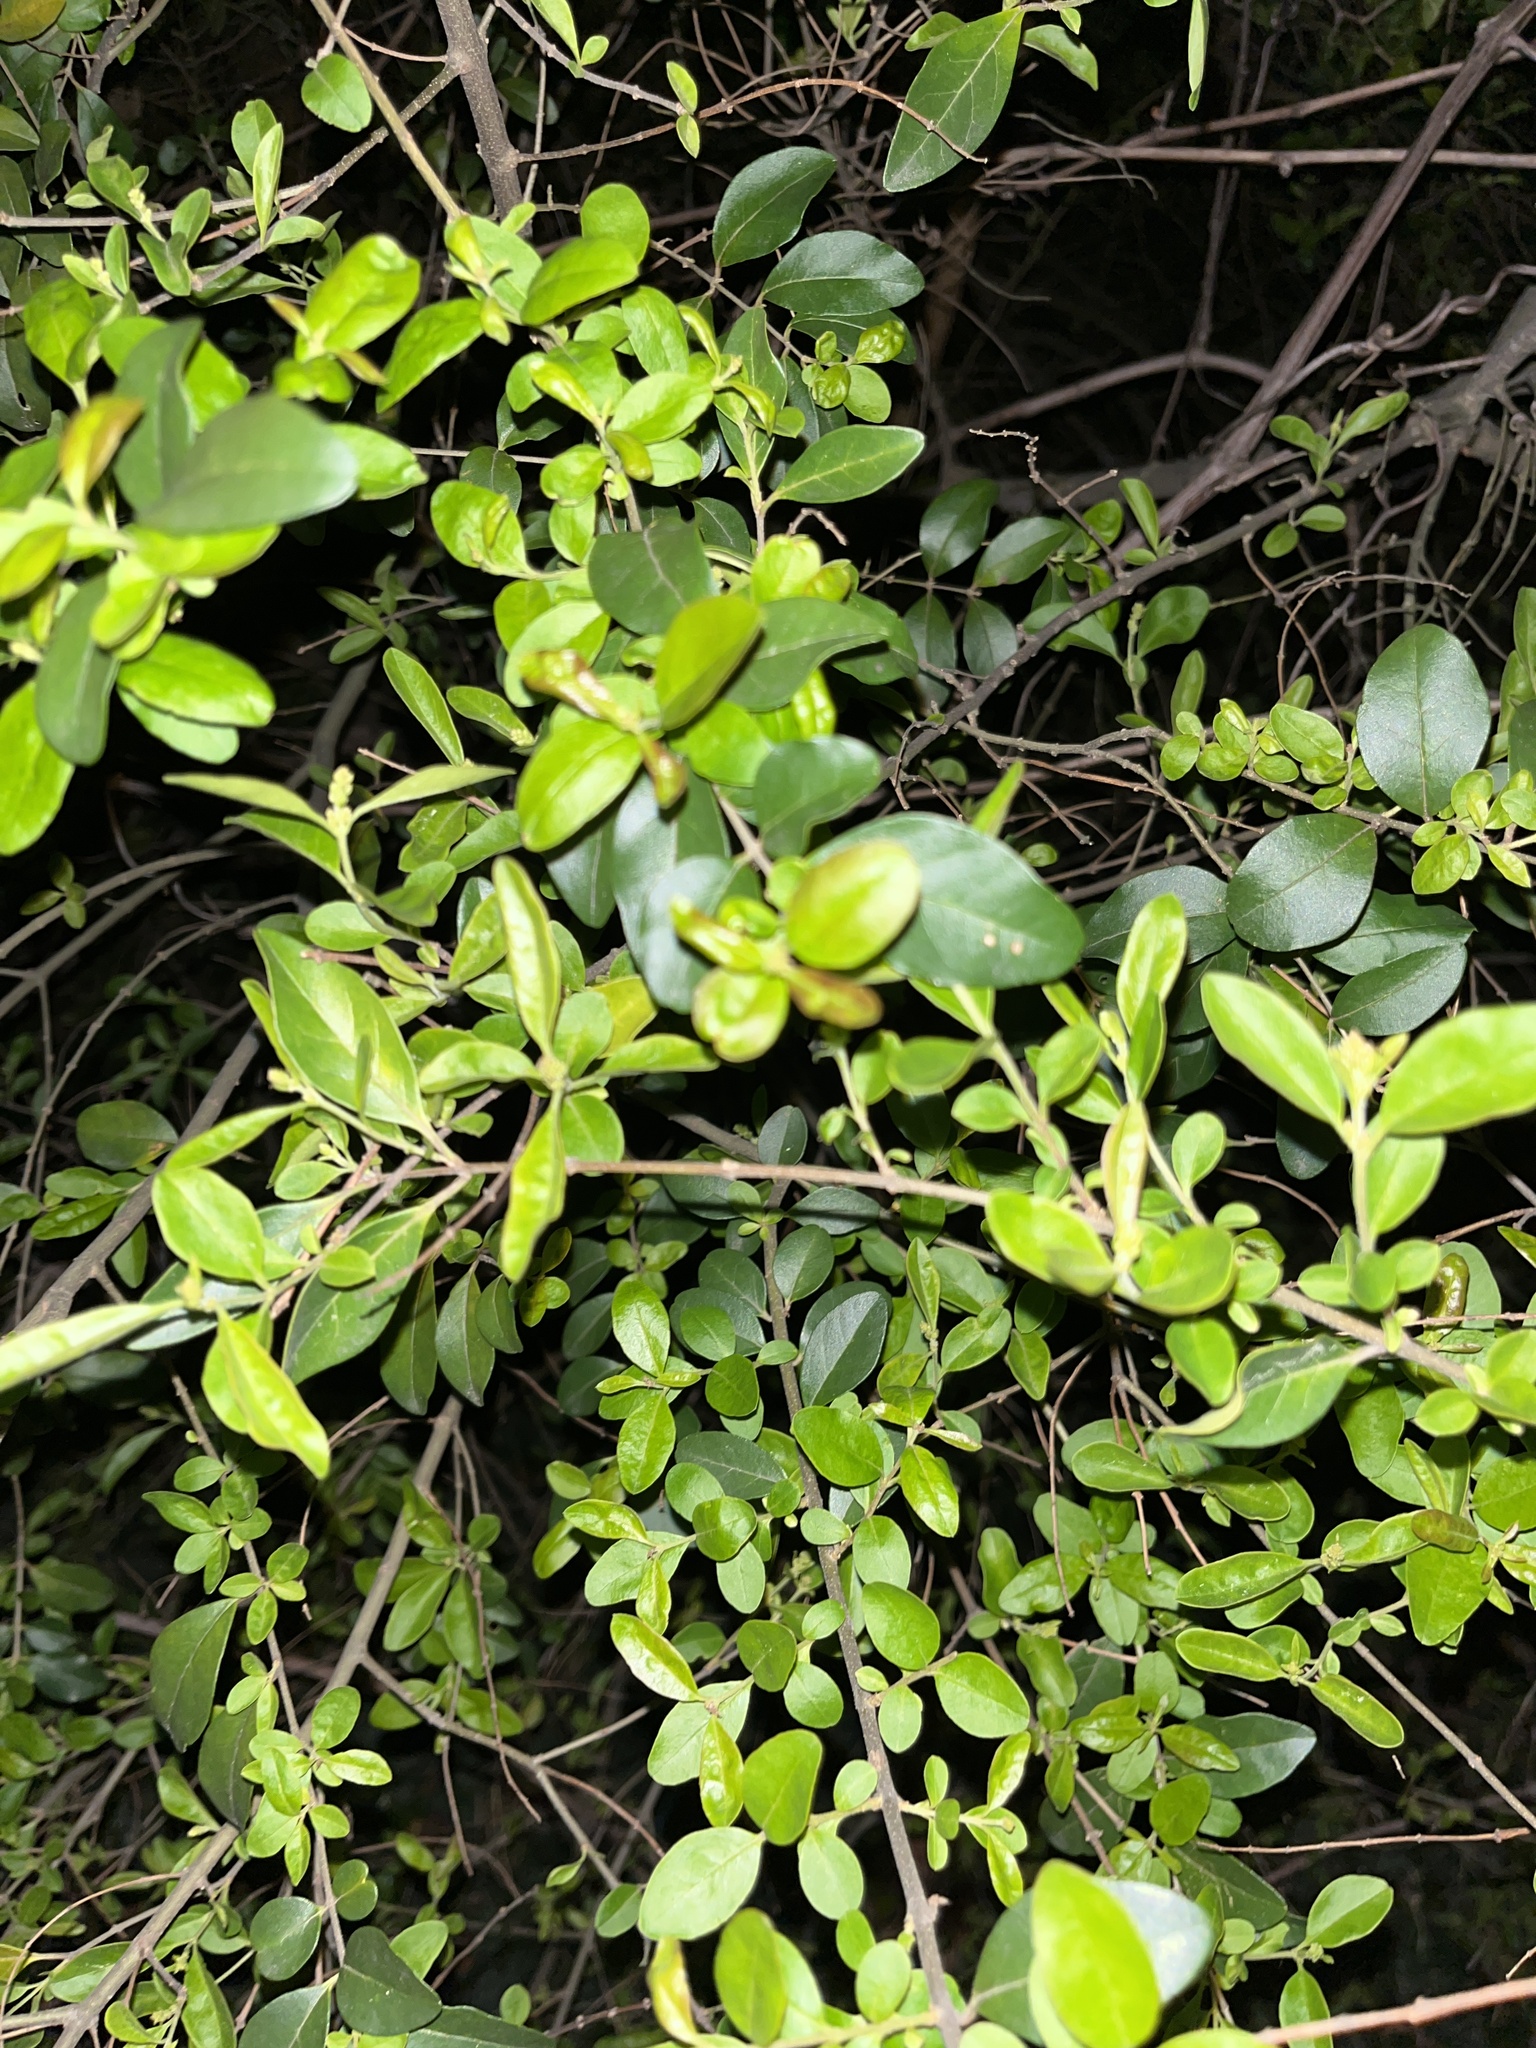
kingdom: Plantae
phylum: Tracheophyta
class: Magnoliopsida
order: Lamiales
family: Oleaceae
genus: Ligustrum
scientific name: Ligustrum sinense
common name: Chinese privet
